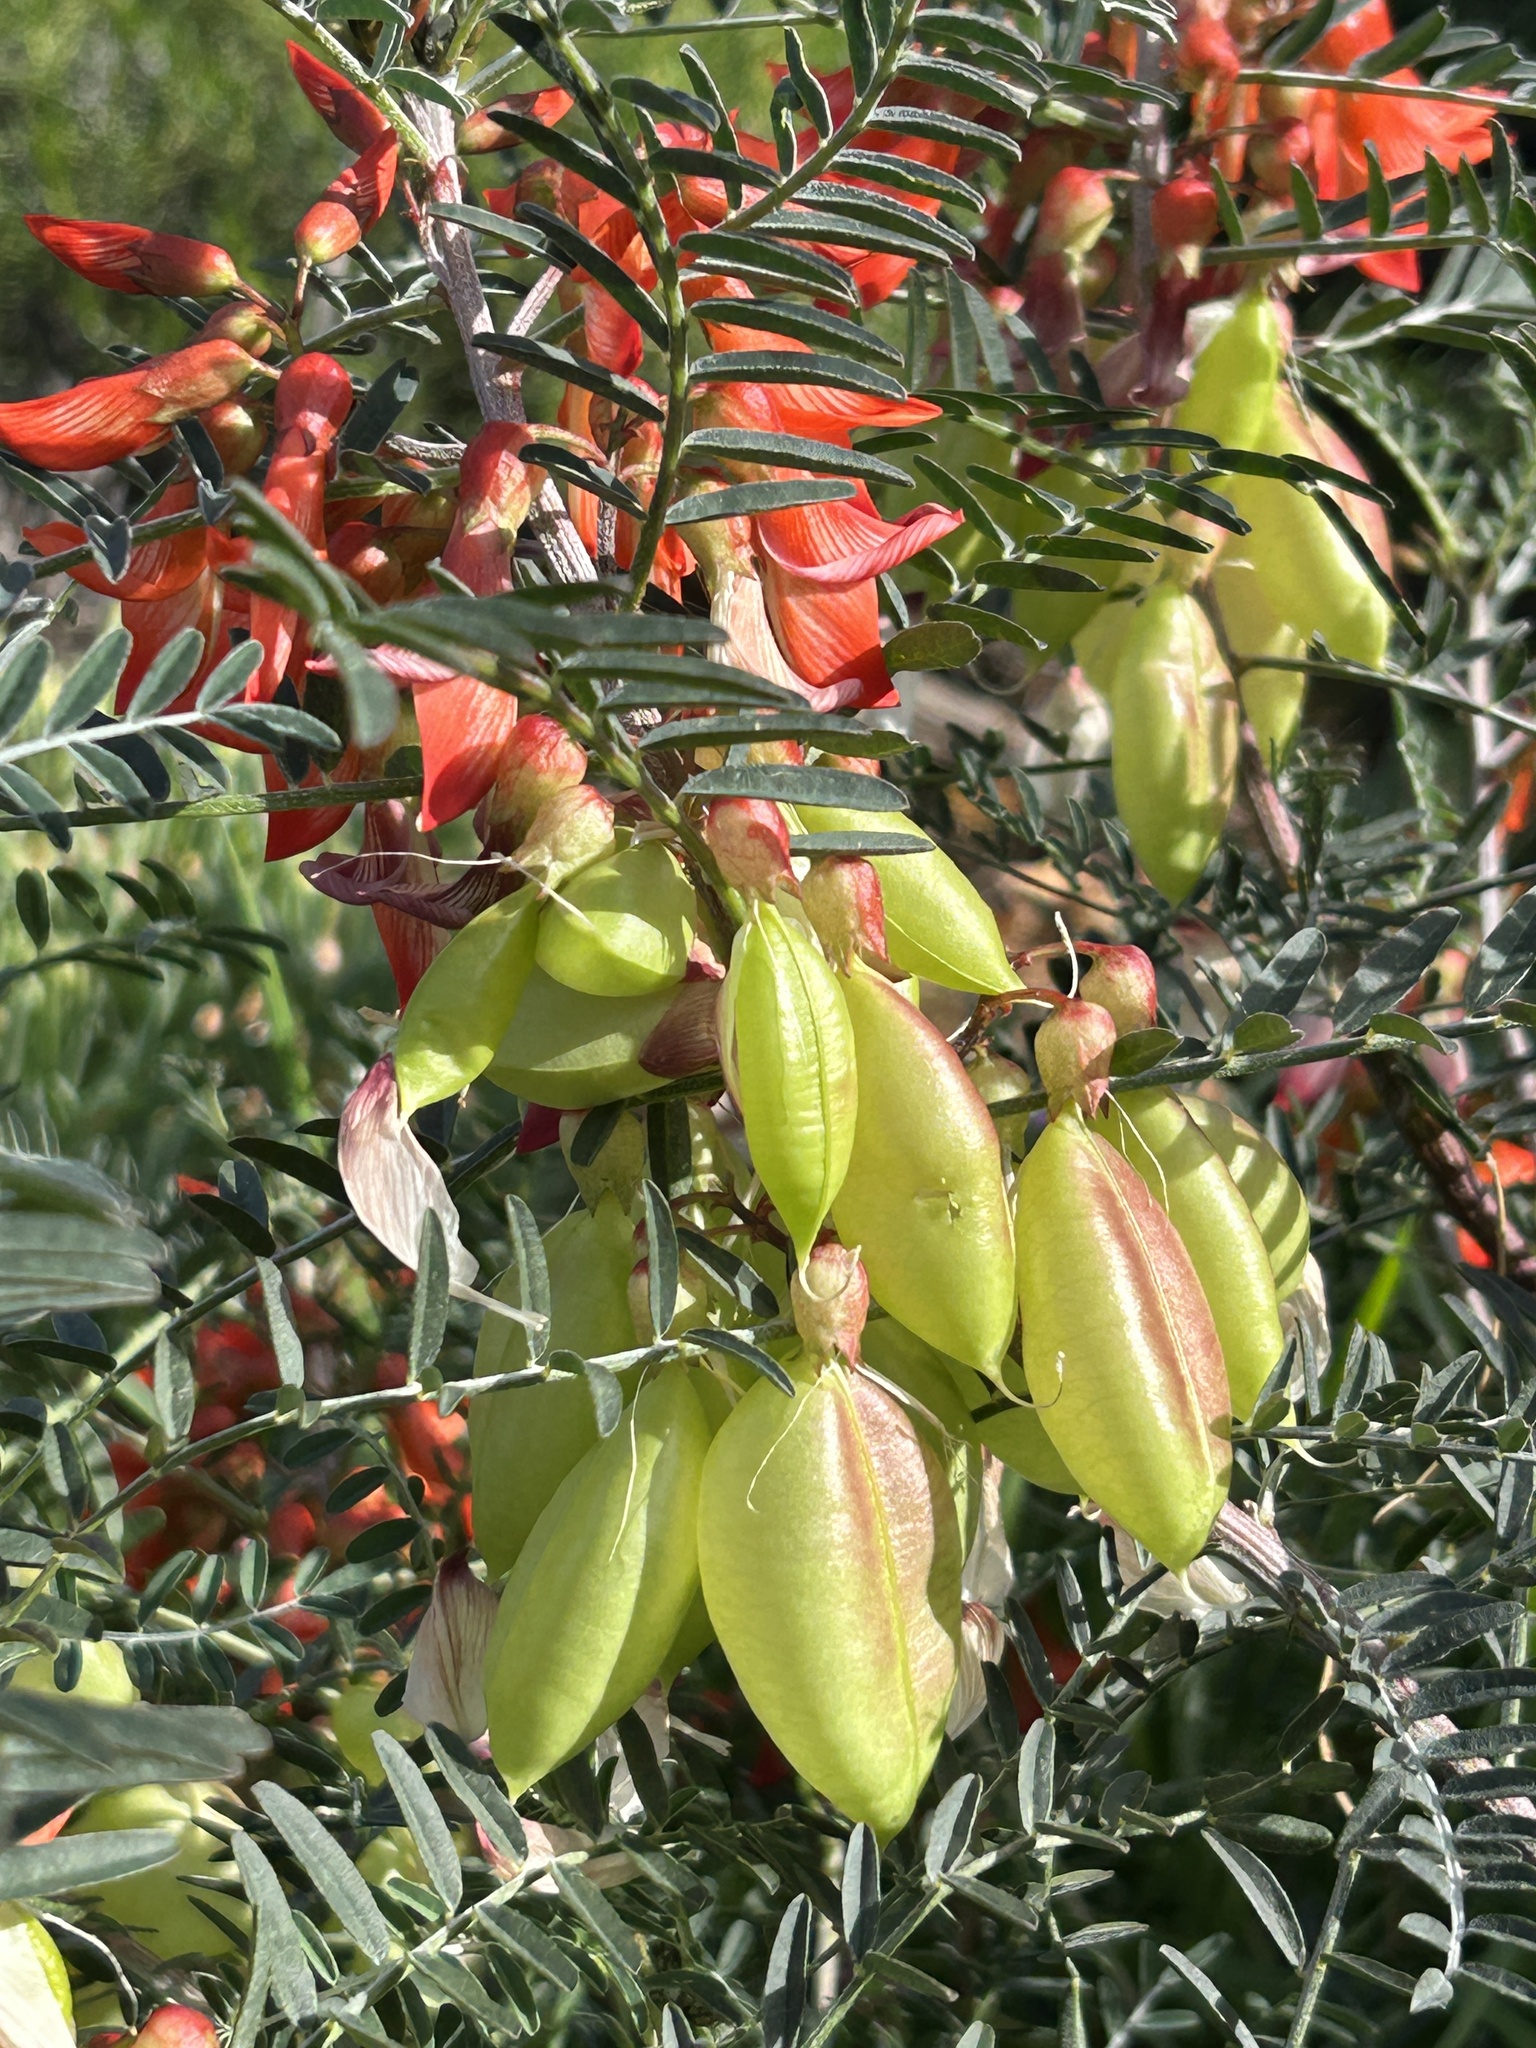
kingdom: Plantae
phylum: Tracheophyta
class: Magnoliopsida
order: Fabales
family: Fabaceae
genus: Lessertia
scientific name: Lessertia frutescens
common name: Balloon-pea
